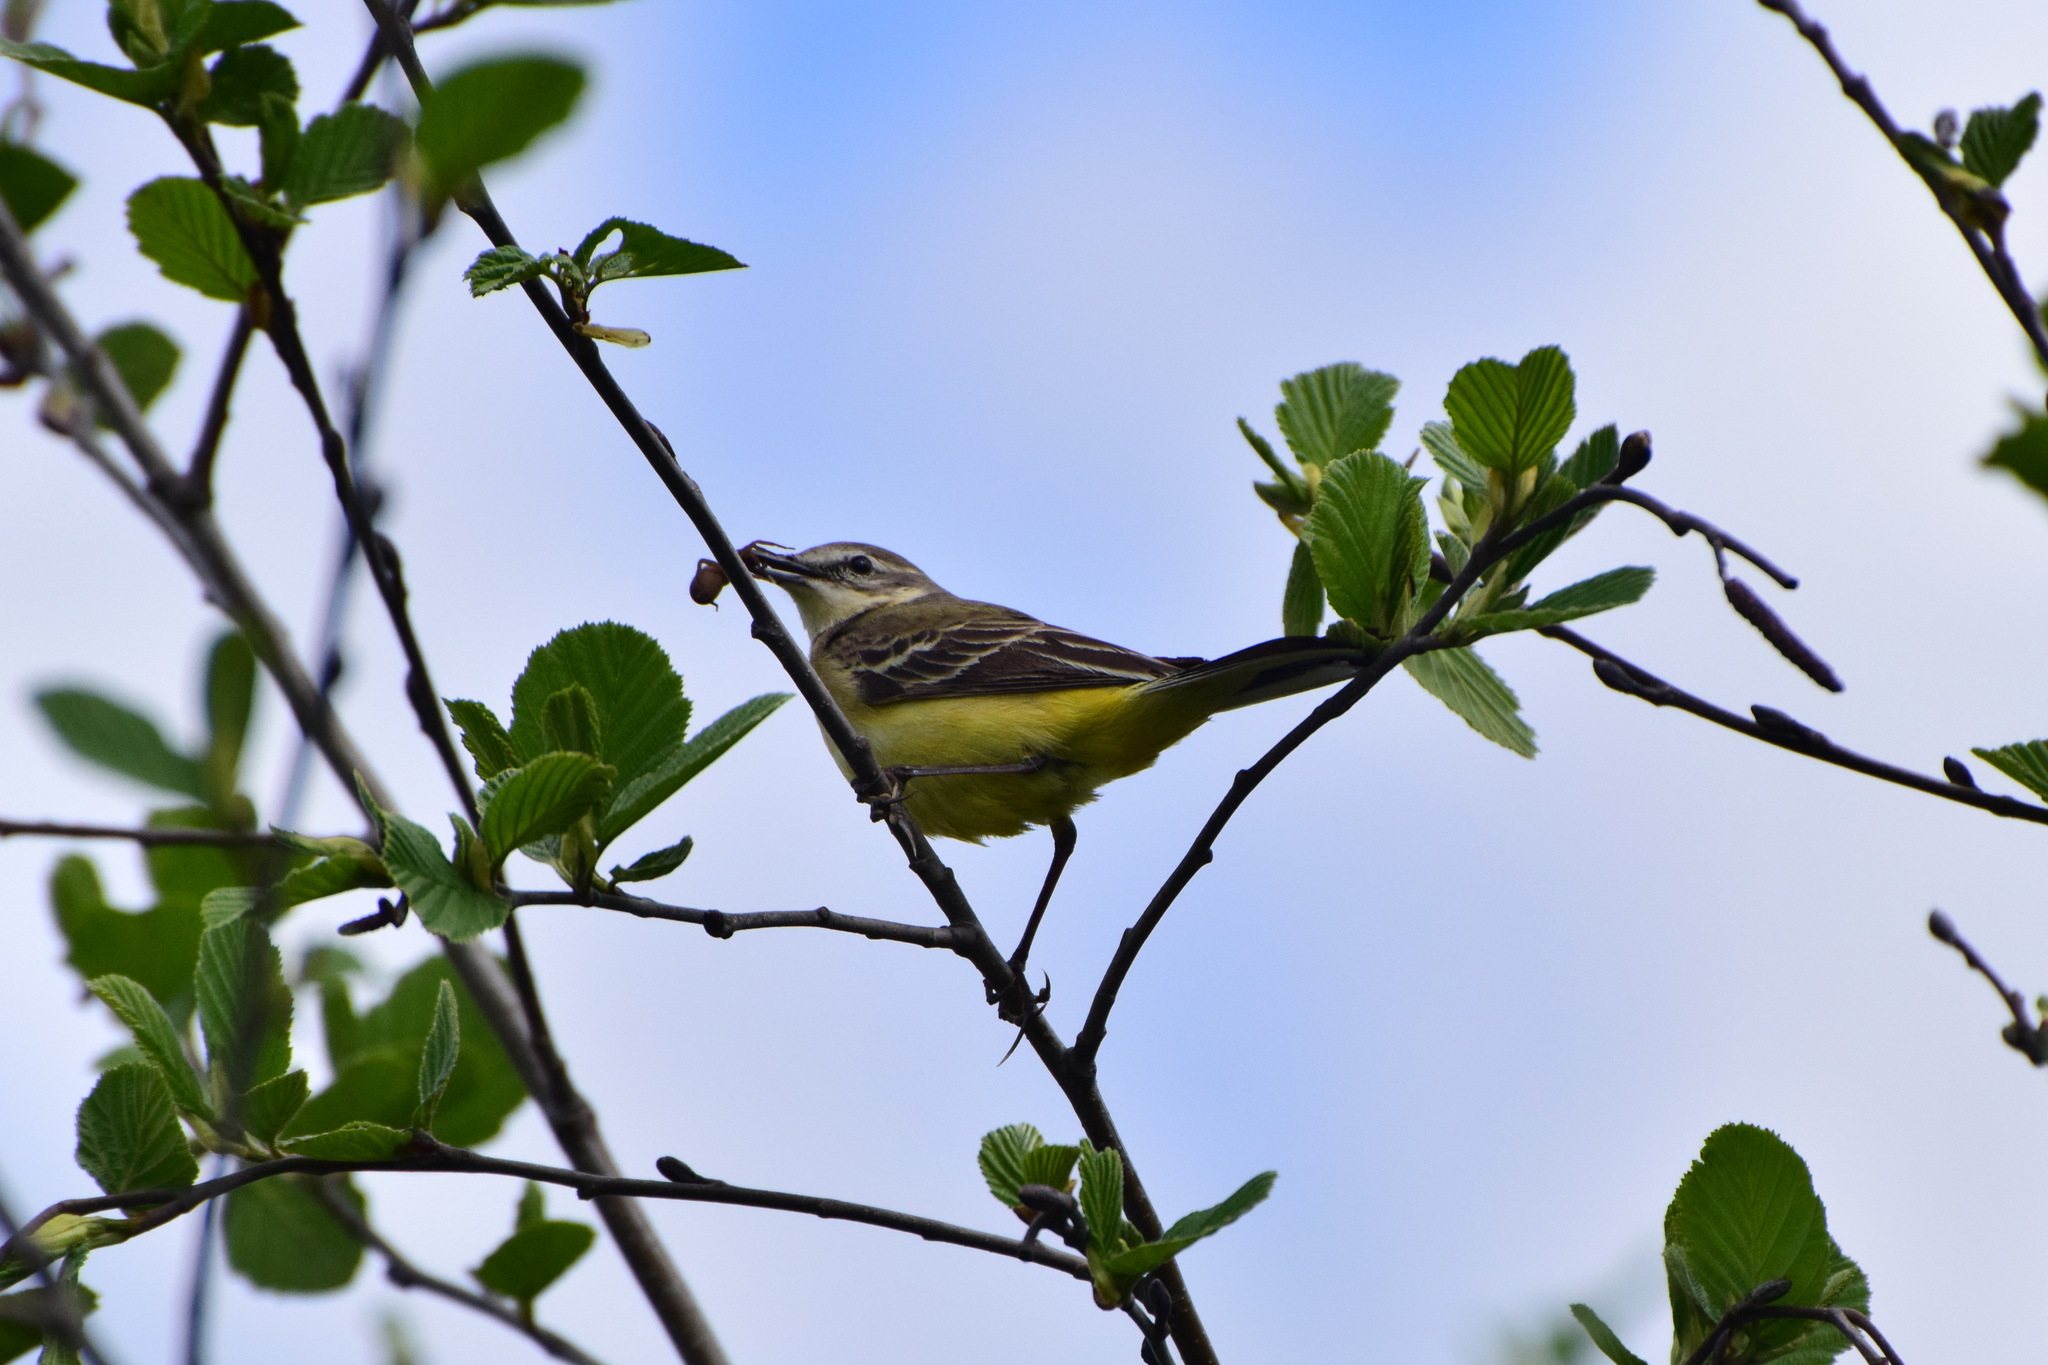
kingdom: Animalia
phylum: Chordata
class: Aves
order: Passeriformes
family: Motacillidae
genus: Motacilla
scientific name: Motacilla flava
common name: Western yellow wagtail
